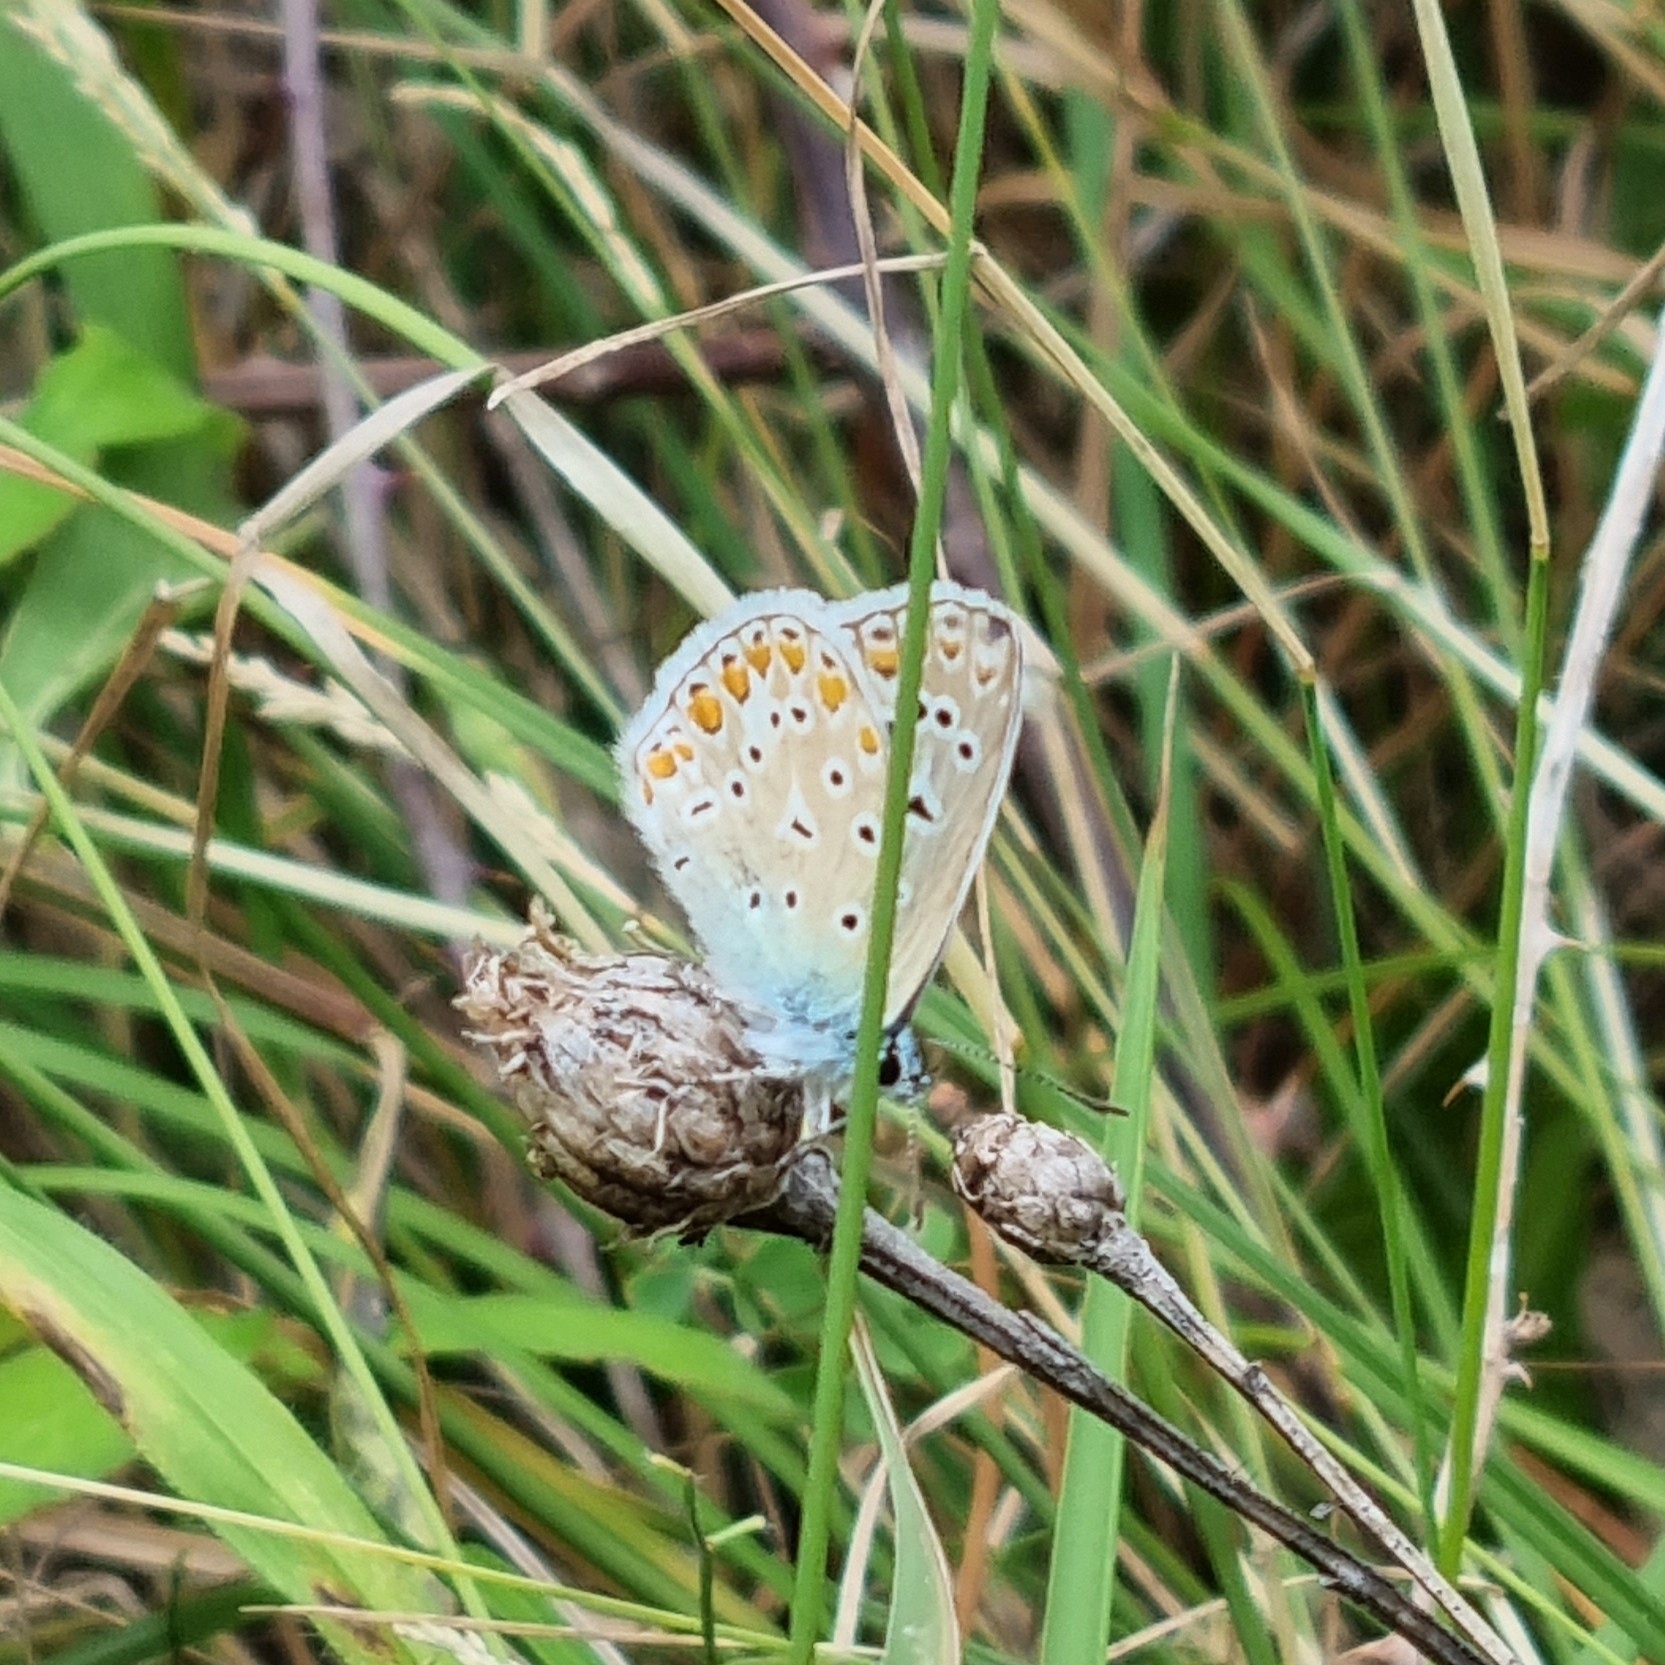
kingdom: Animalia
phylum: Arthropoda
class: Insecta
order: Lepidoptera
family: Lycaenidae
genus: Polyommatus
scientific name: Polyommatus icarus
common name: Common blue
